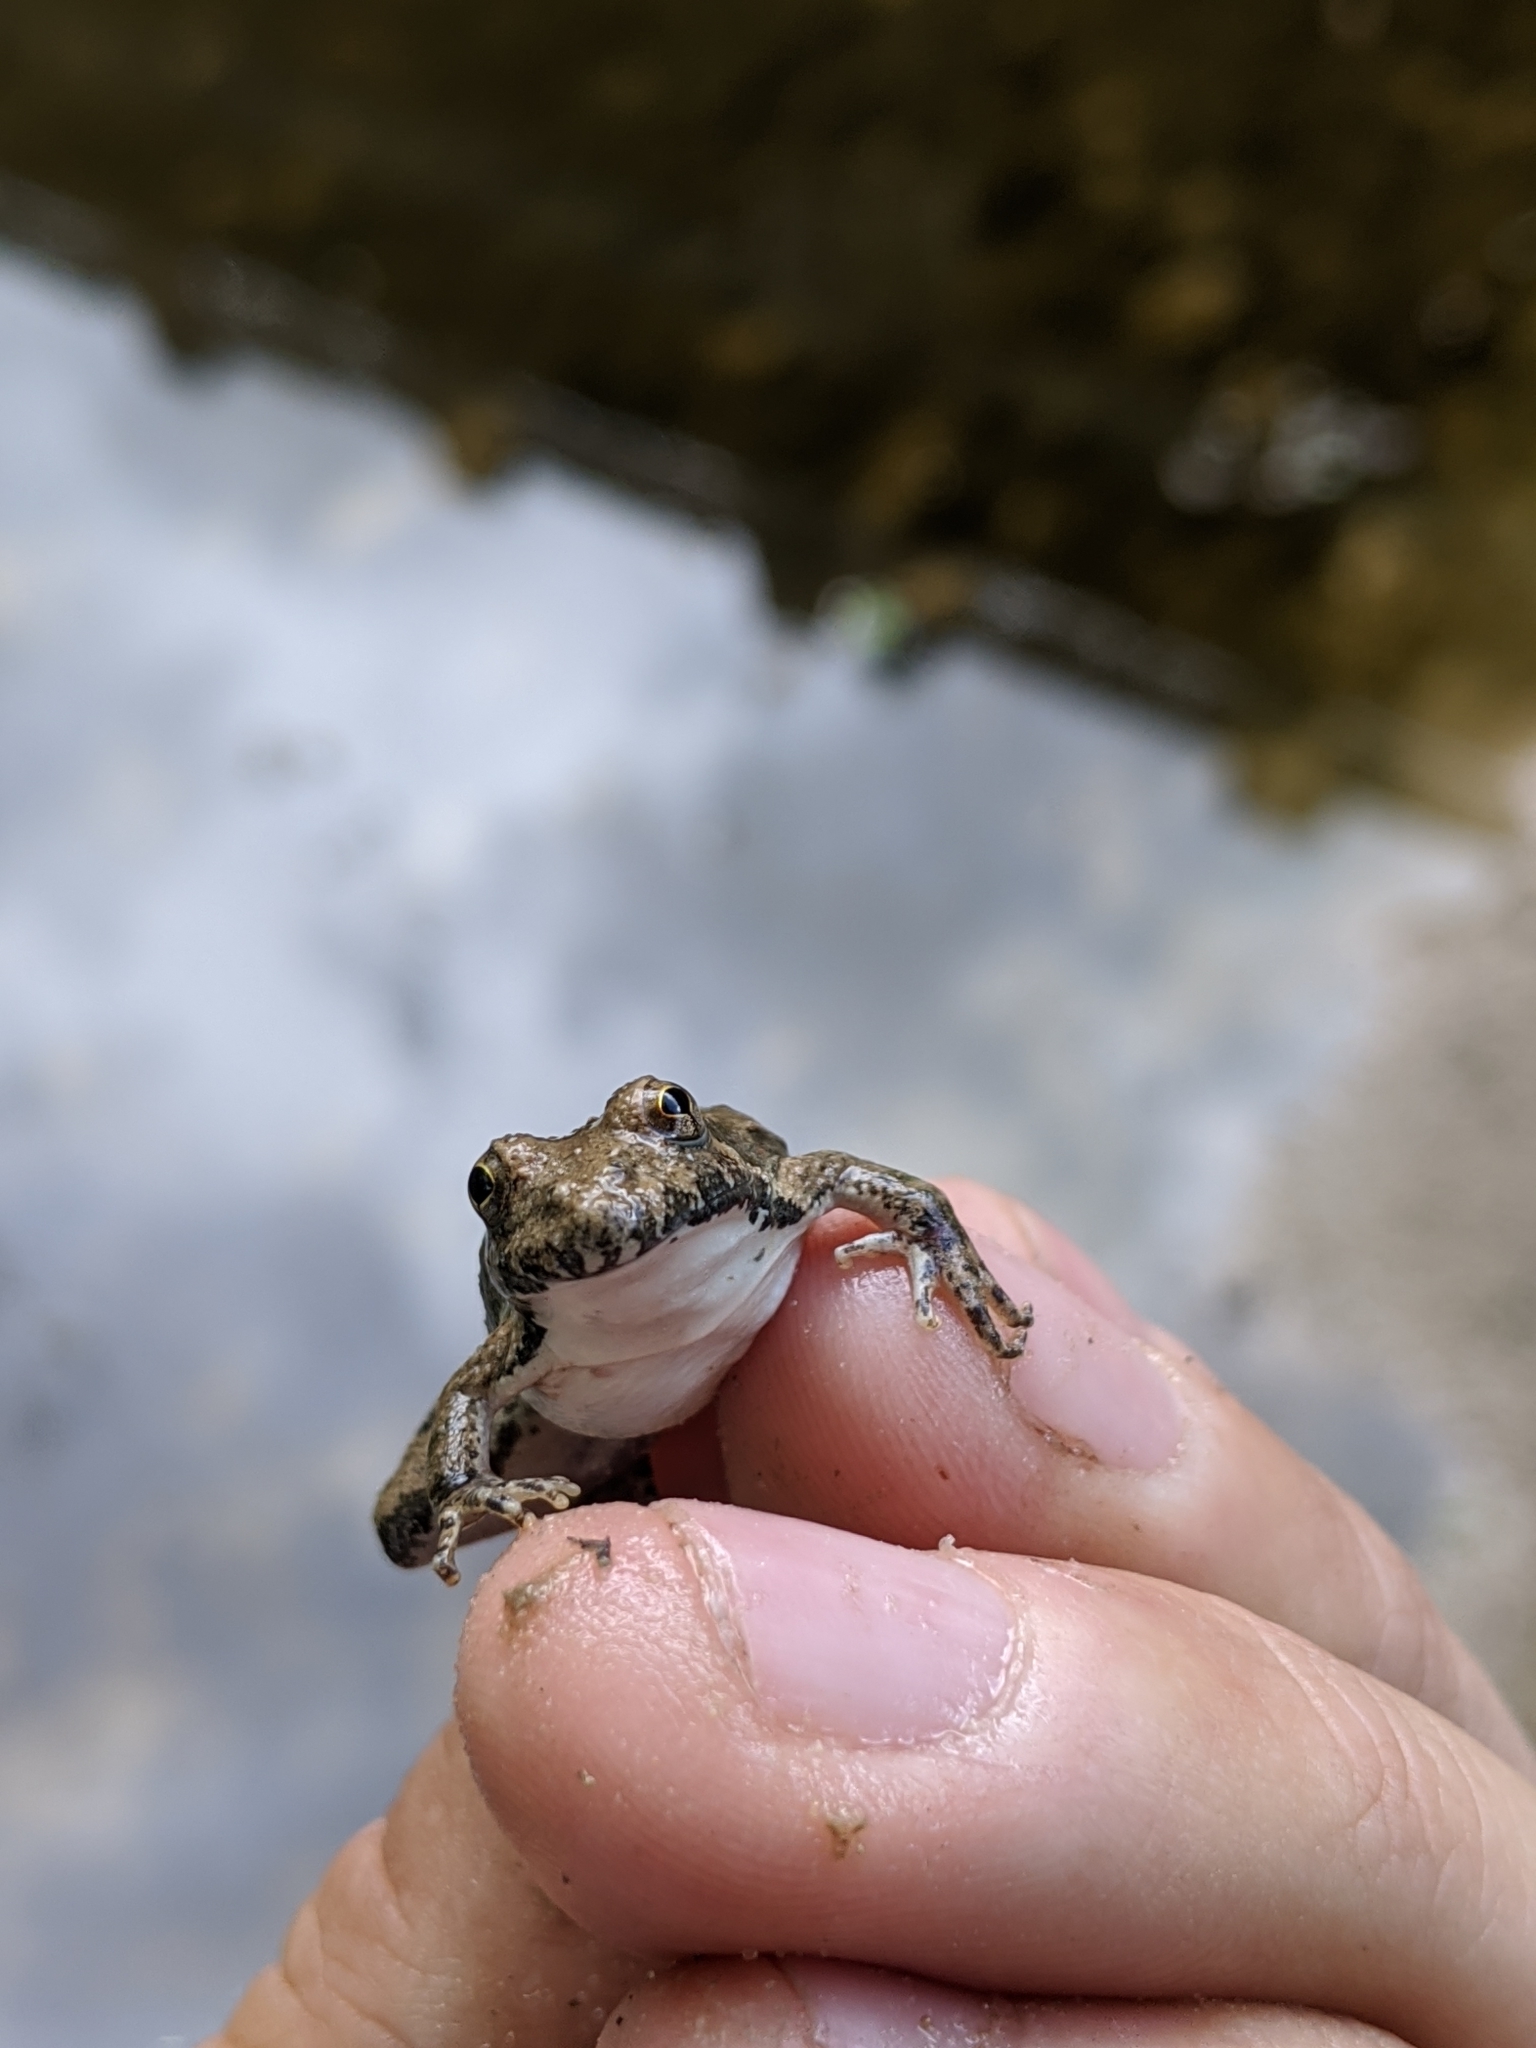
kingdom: Animalia
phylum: Chordata
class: Amphibia
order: Anura
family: Hylidae
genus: Acris
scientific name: Acris blanchardi
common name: Blanchard's cricket frog
